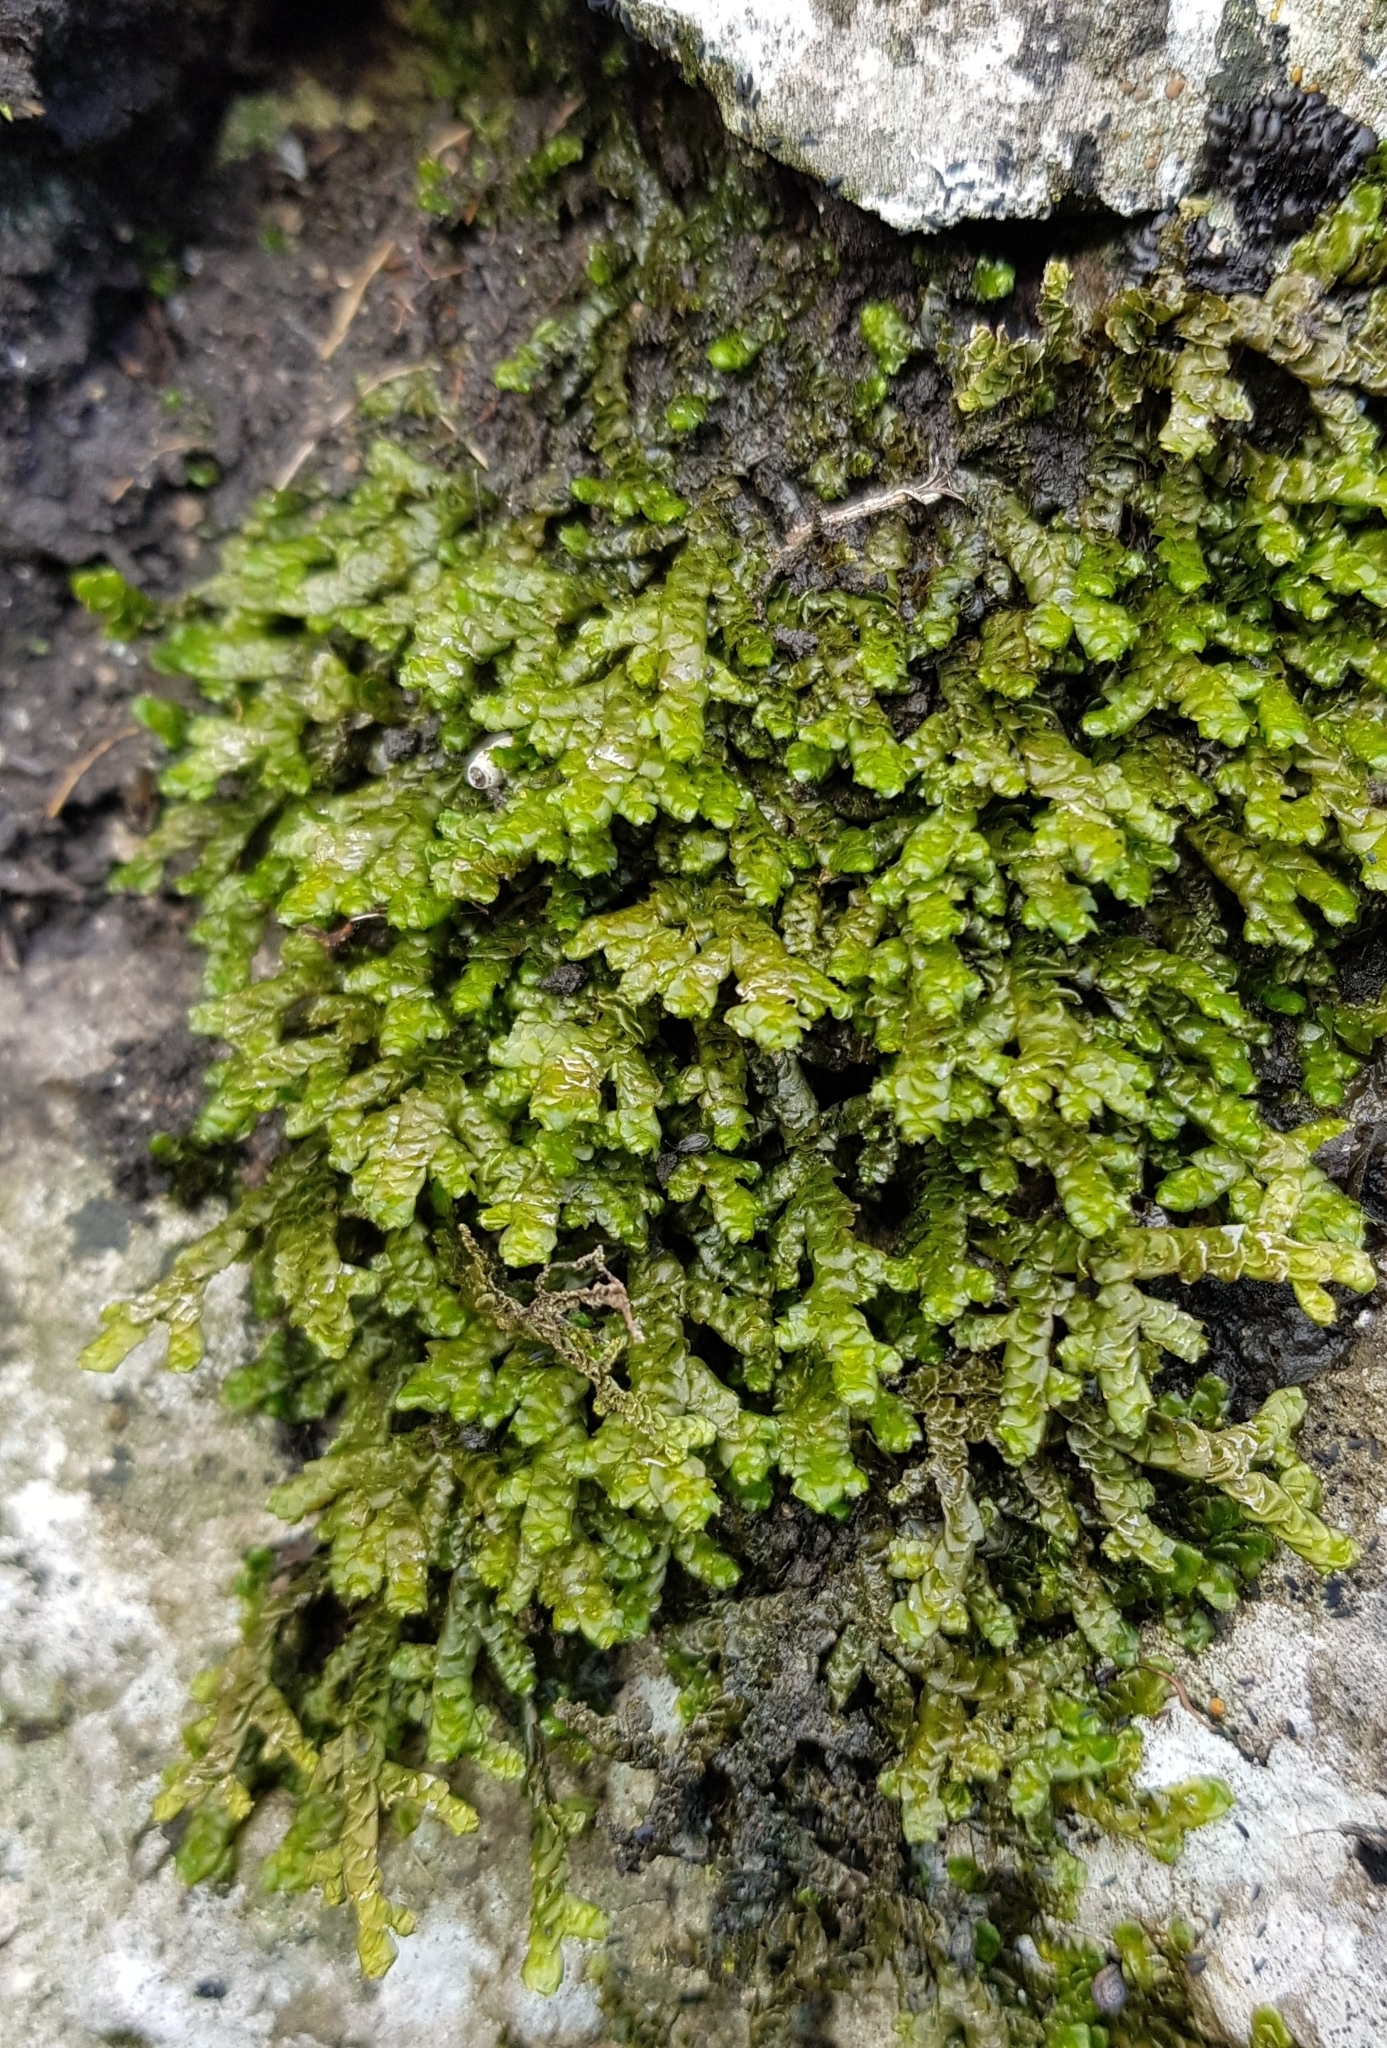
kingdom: Plantae
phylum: Marchantiophyta
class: Jungermanniopsida
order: Porellales
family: Porellaceae
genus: Porella
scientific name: Porella platyphylla
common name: Wall scalewort
